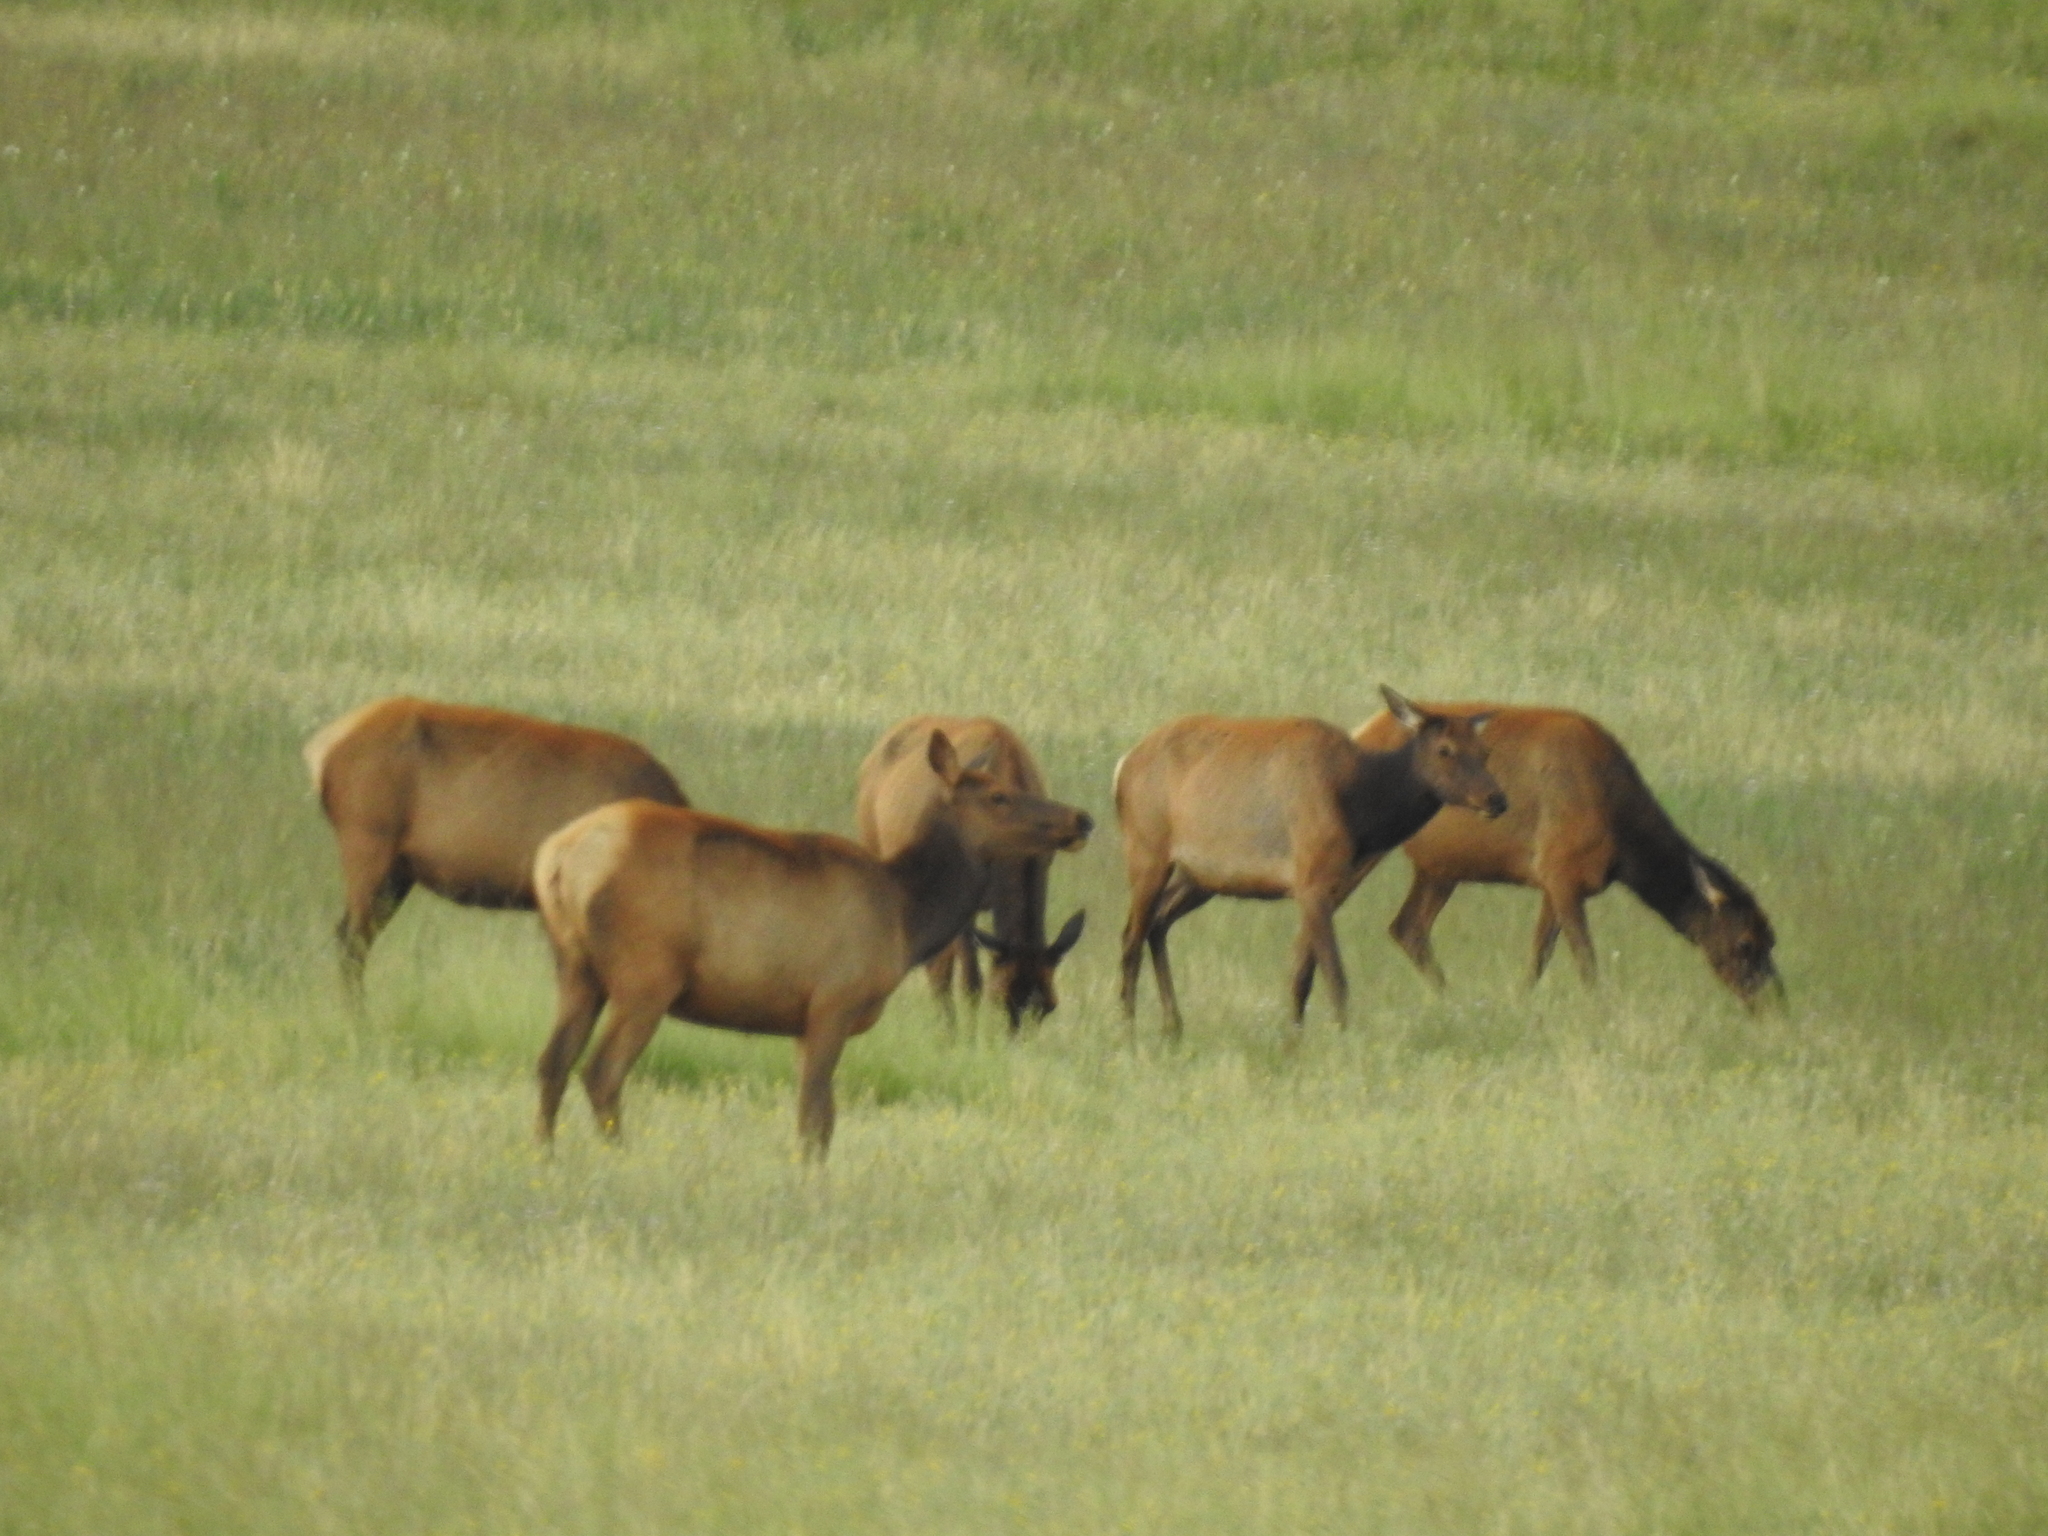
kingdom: Animalia
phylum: Chordata
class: Mammalia
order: Artiodactyla
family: Cervidae
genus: Cervus
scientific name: Cervus elaphus
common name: Red deer
